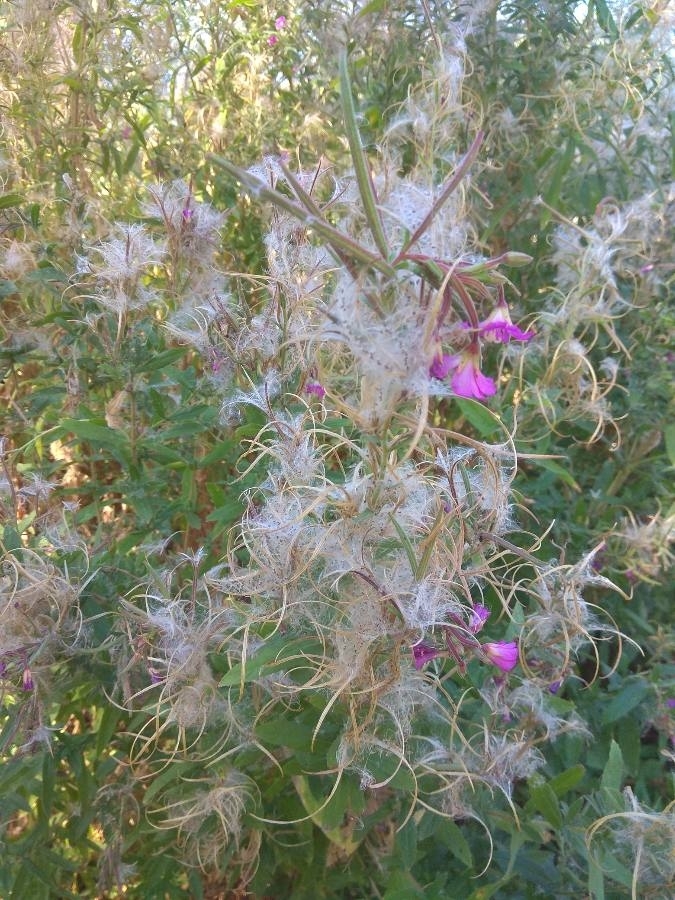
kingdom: Plantae
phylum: Tracheophyta
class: Magnoliopsida
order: Myrtales
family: Onagraceae
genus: Epilobium
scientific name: Epilobium hirsutum
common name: Great willowherb
